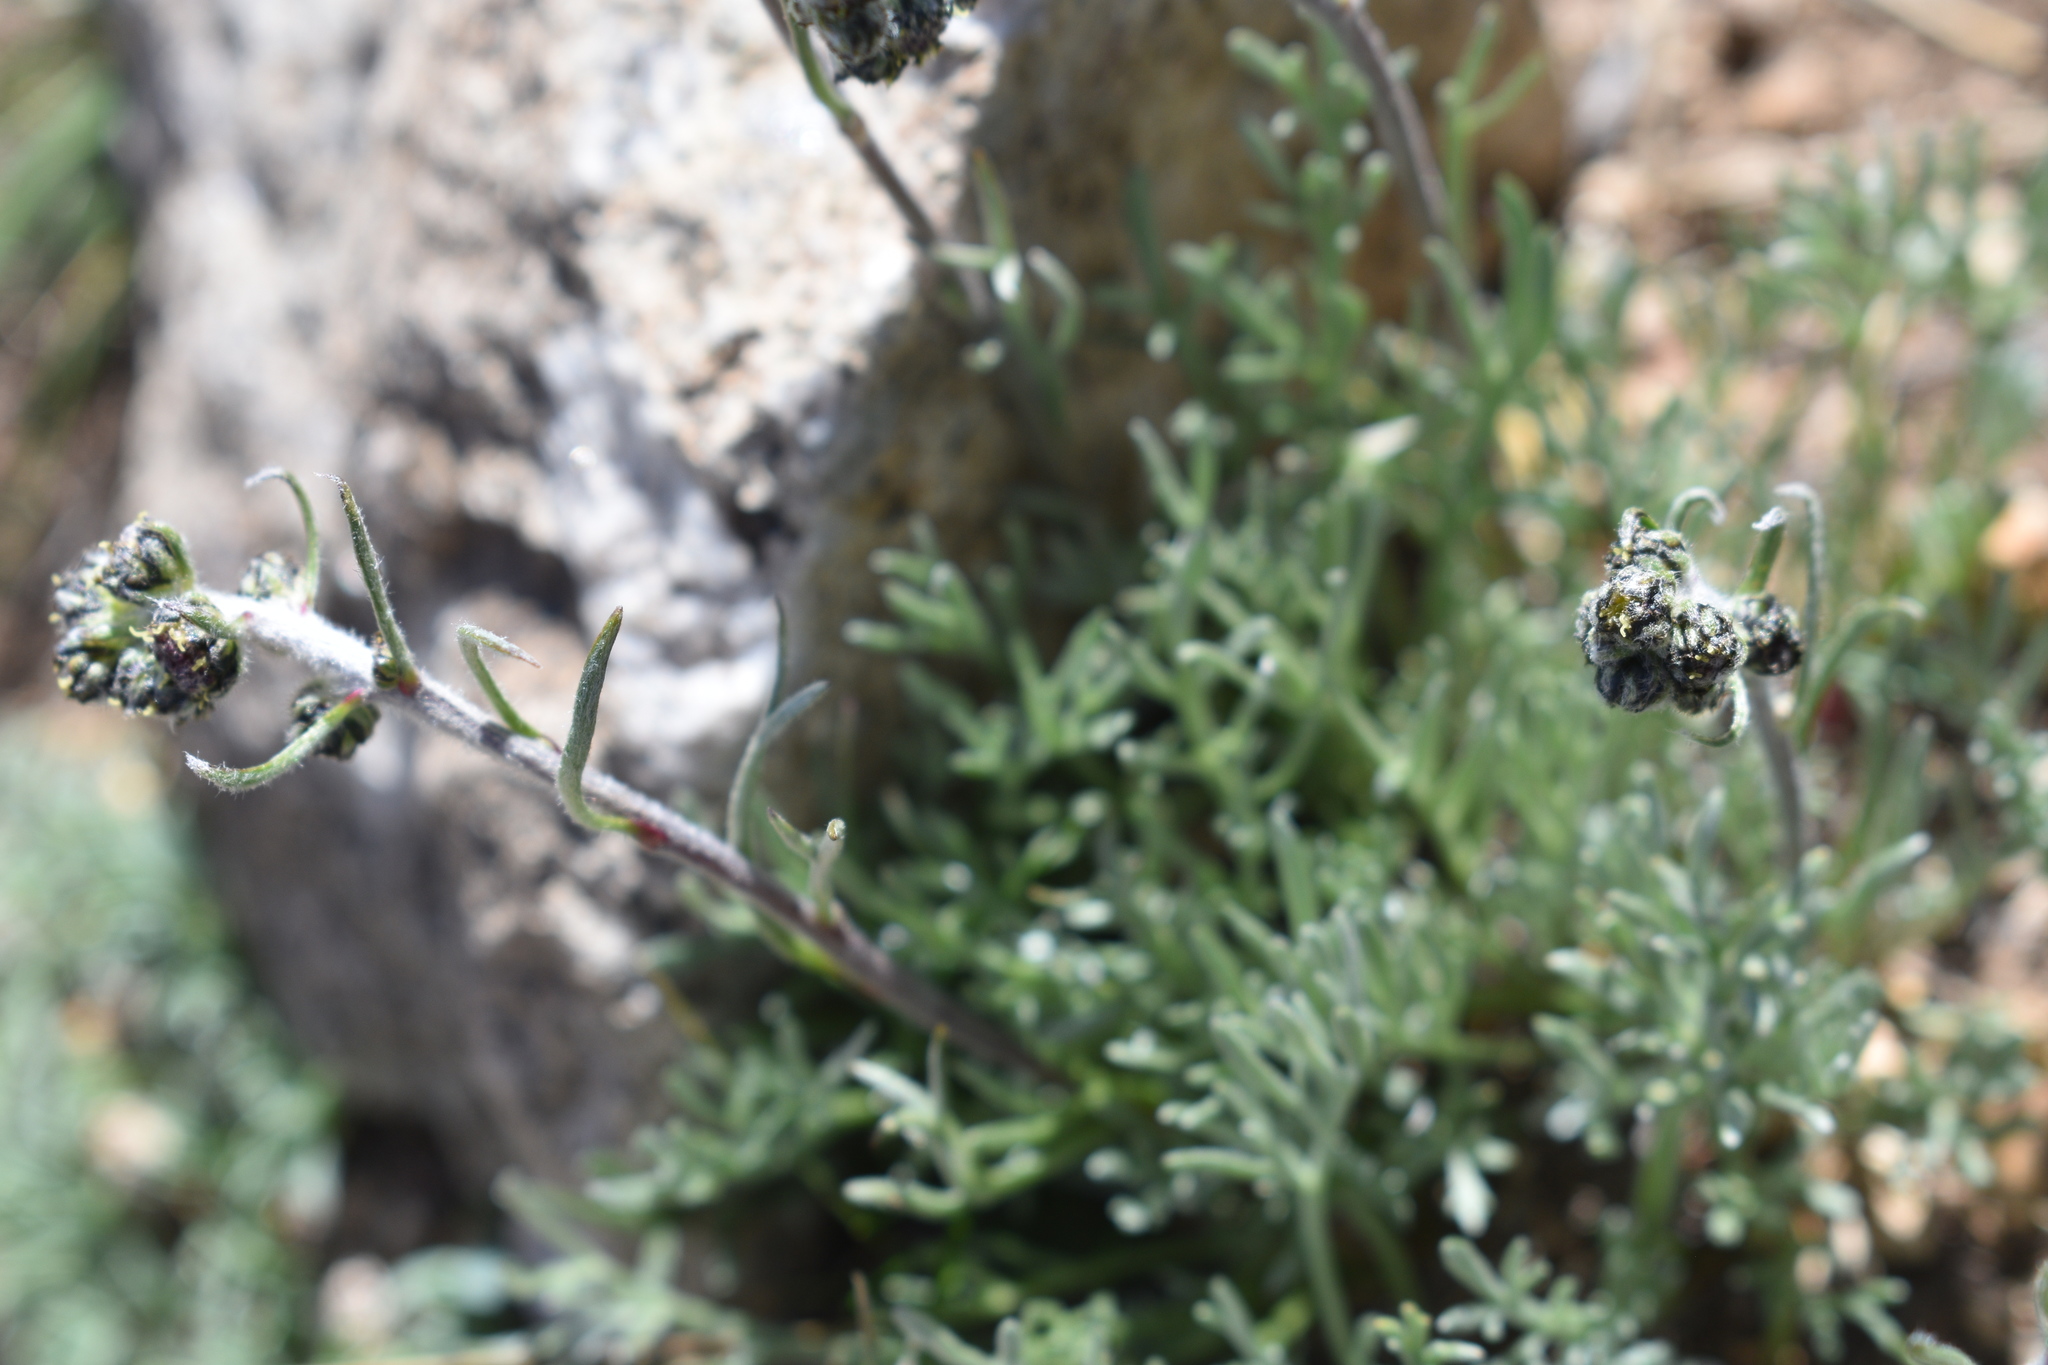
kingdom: Plantae
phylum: Tracheophyta
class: Magnoliopsida
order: Asterales
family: Asteraceae
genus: Artemisia
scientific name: Artemisia scopulorum
